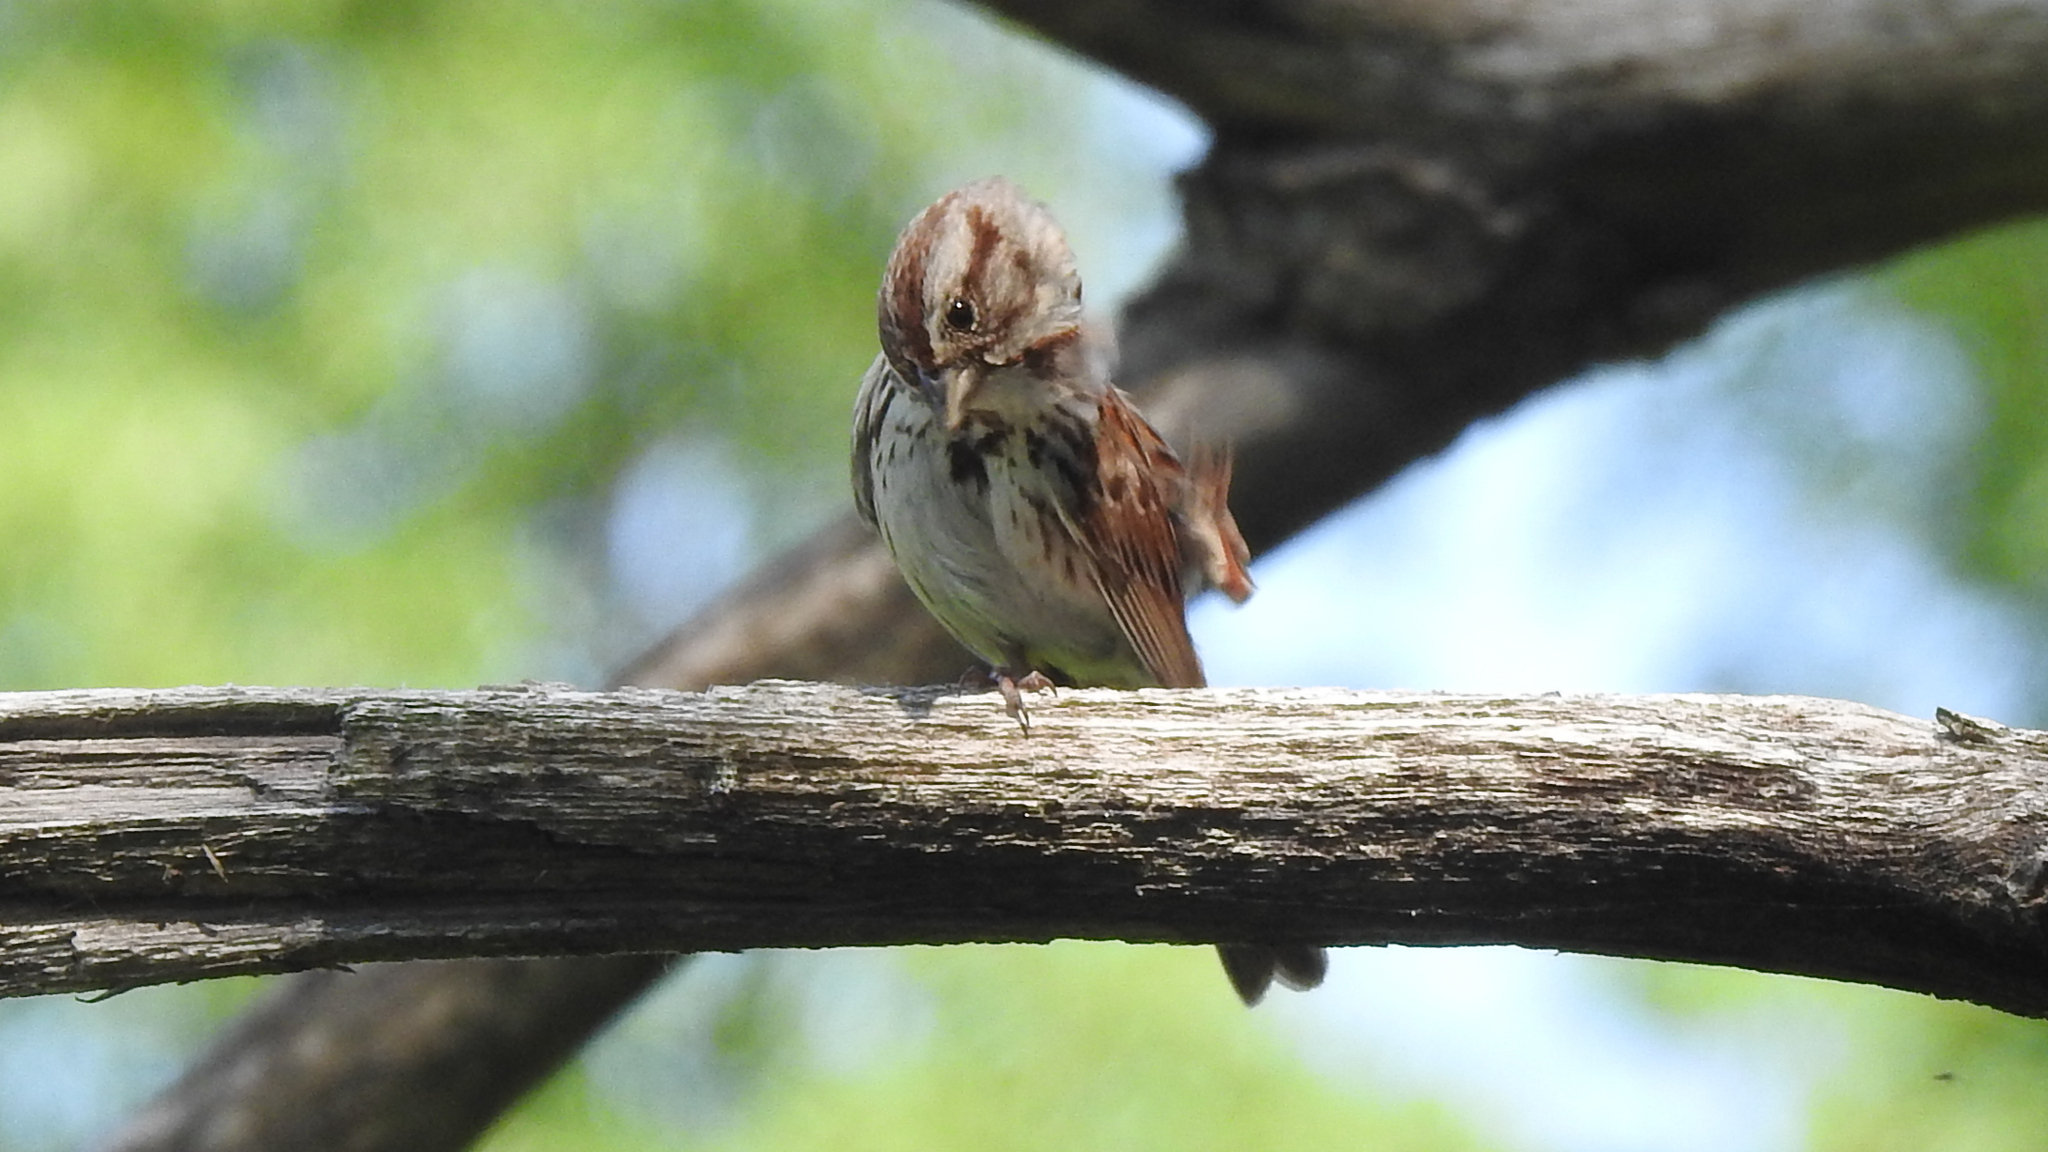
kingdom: Animalia
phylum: Chordata
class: Aves
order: Passeriformes
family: Passerellidae
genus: Melospiza
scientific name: Melospiza melodia
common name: Song sparrow
